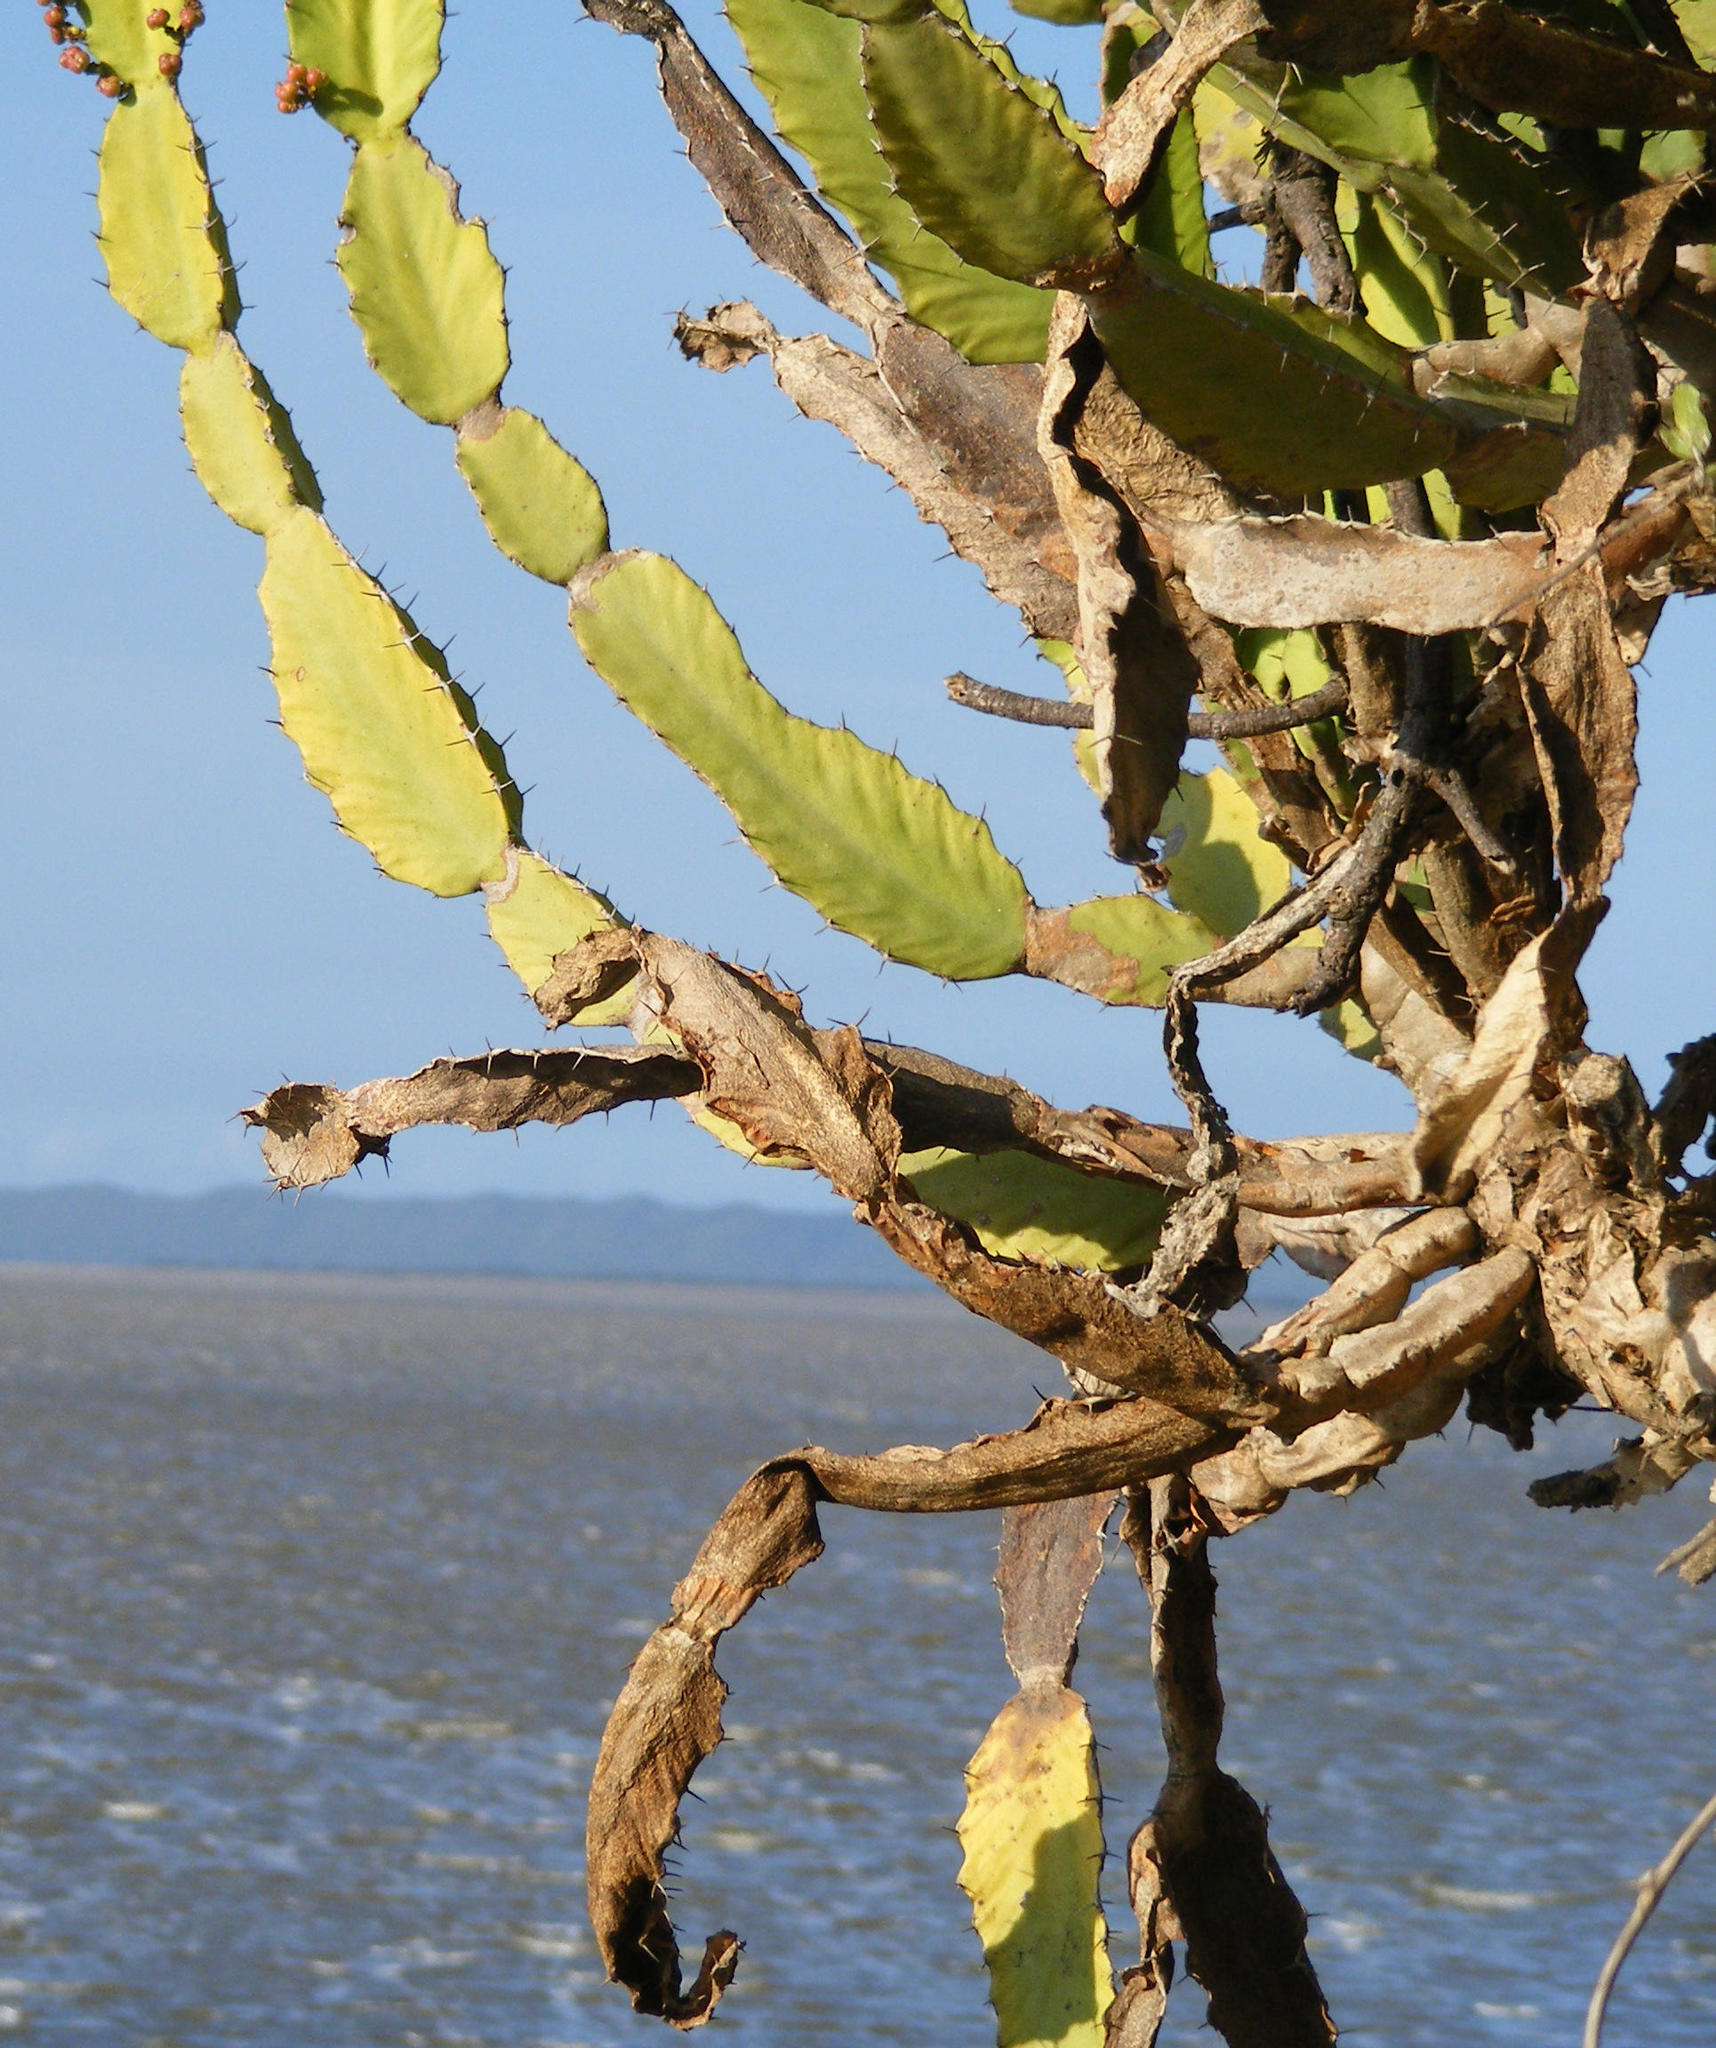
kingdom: Plantae
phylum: Tracheophyta
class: Magnoliopsida
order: Malpighiales
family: Euphorbiaceae
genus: Euphorbia
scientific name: Euphorbia triangularis
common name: Chandelier tree
